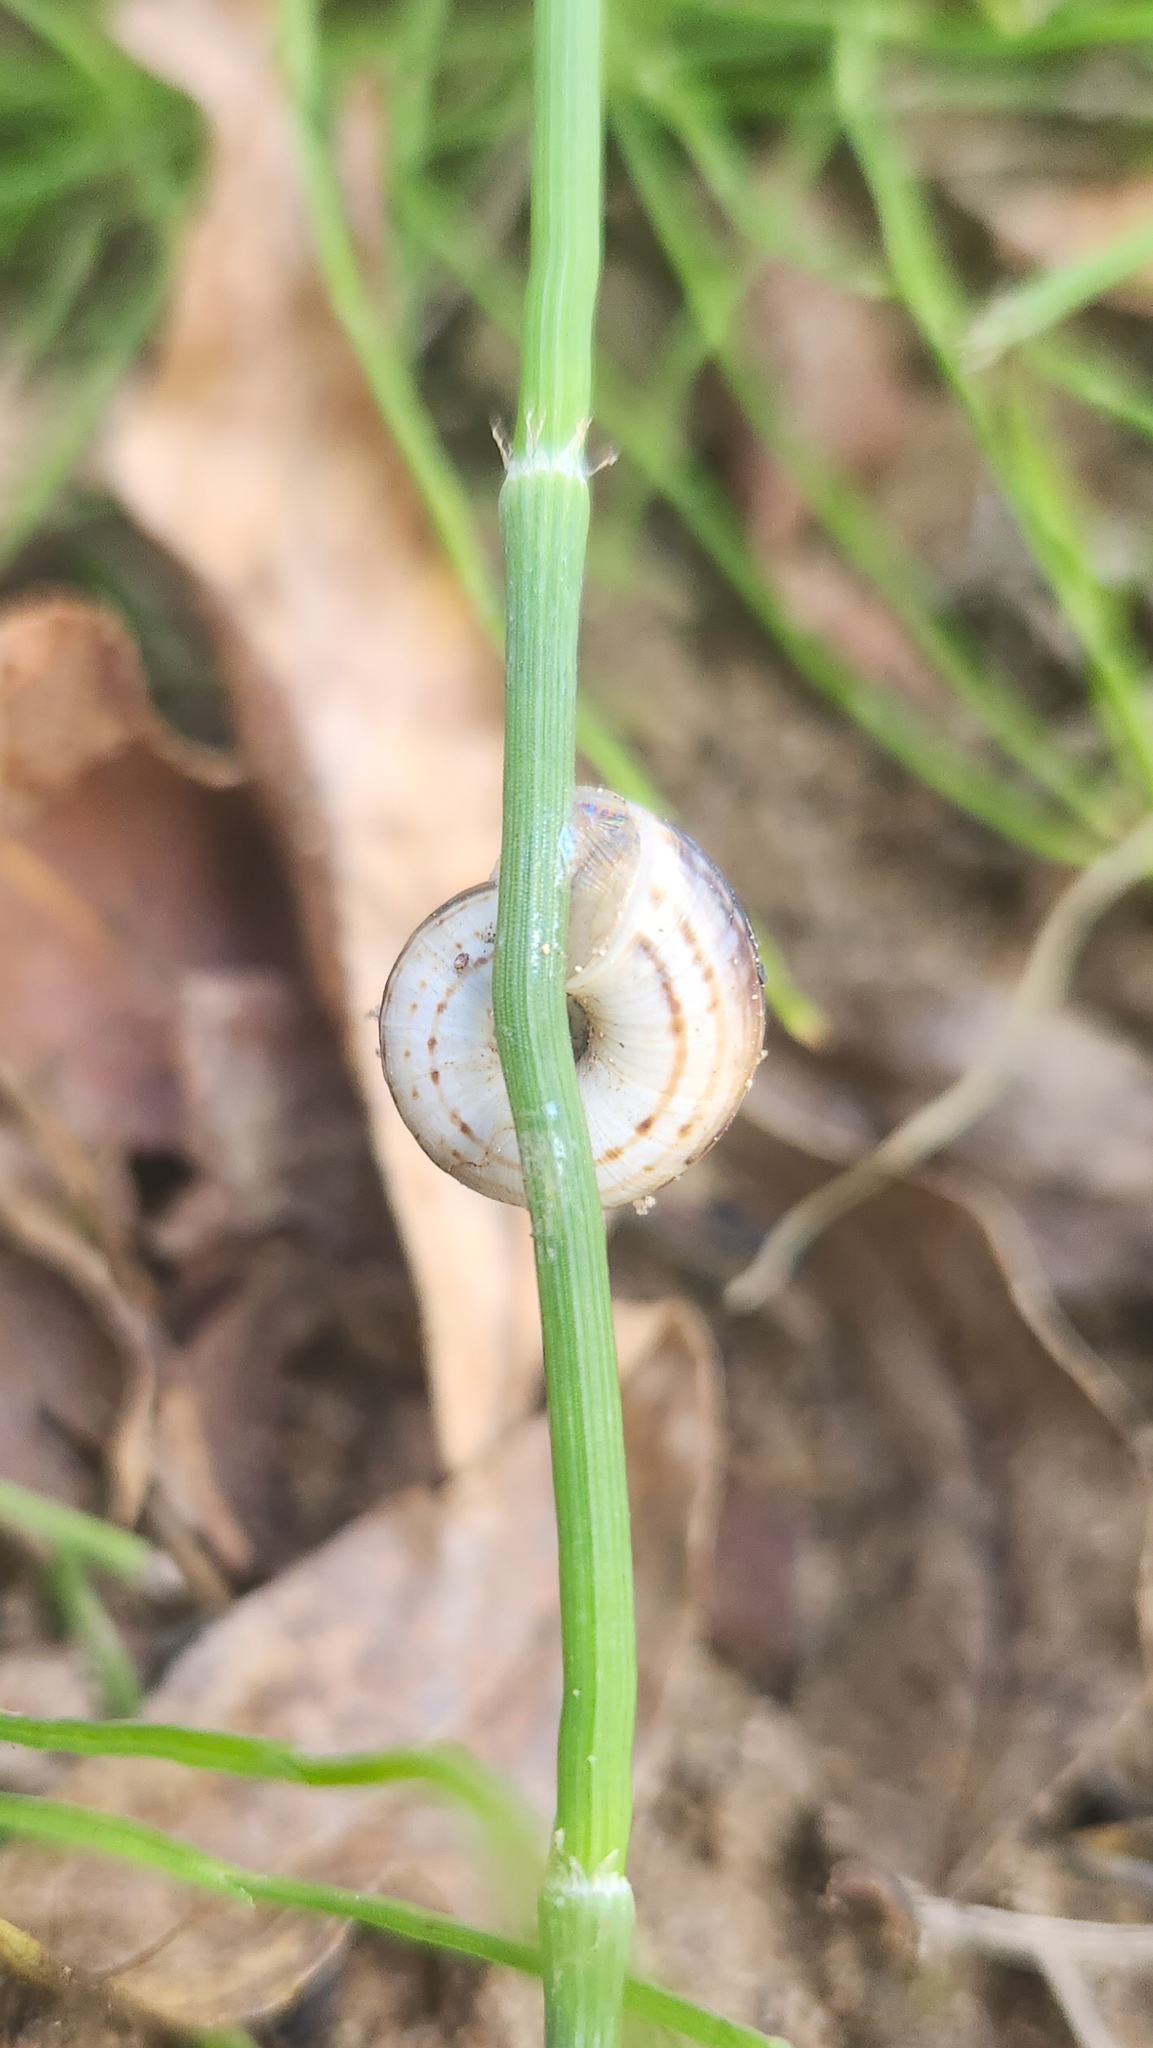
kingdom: Animalia
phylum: Mollusca
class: Gastropoda
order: Stylommatophora
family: Geomitridae
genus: Xerolenta
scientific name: Xerolenta obvia
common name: White heath snail
